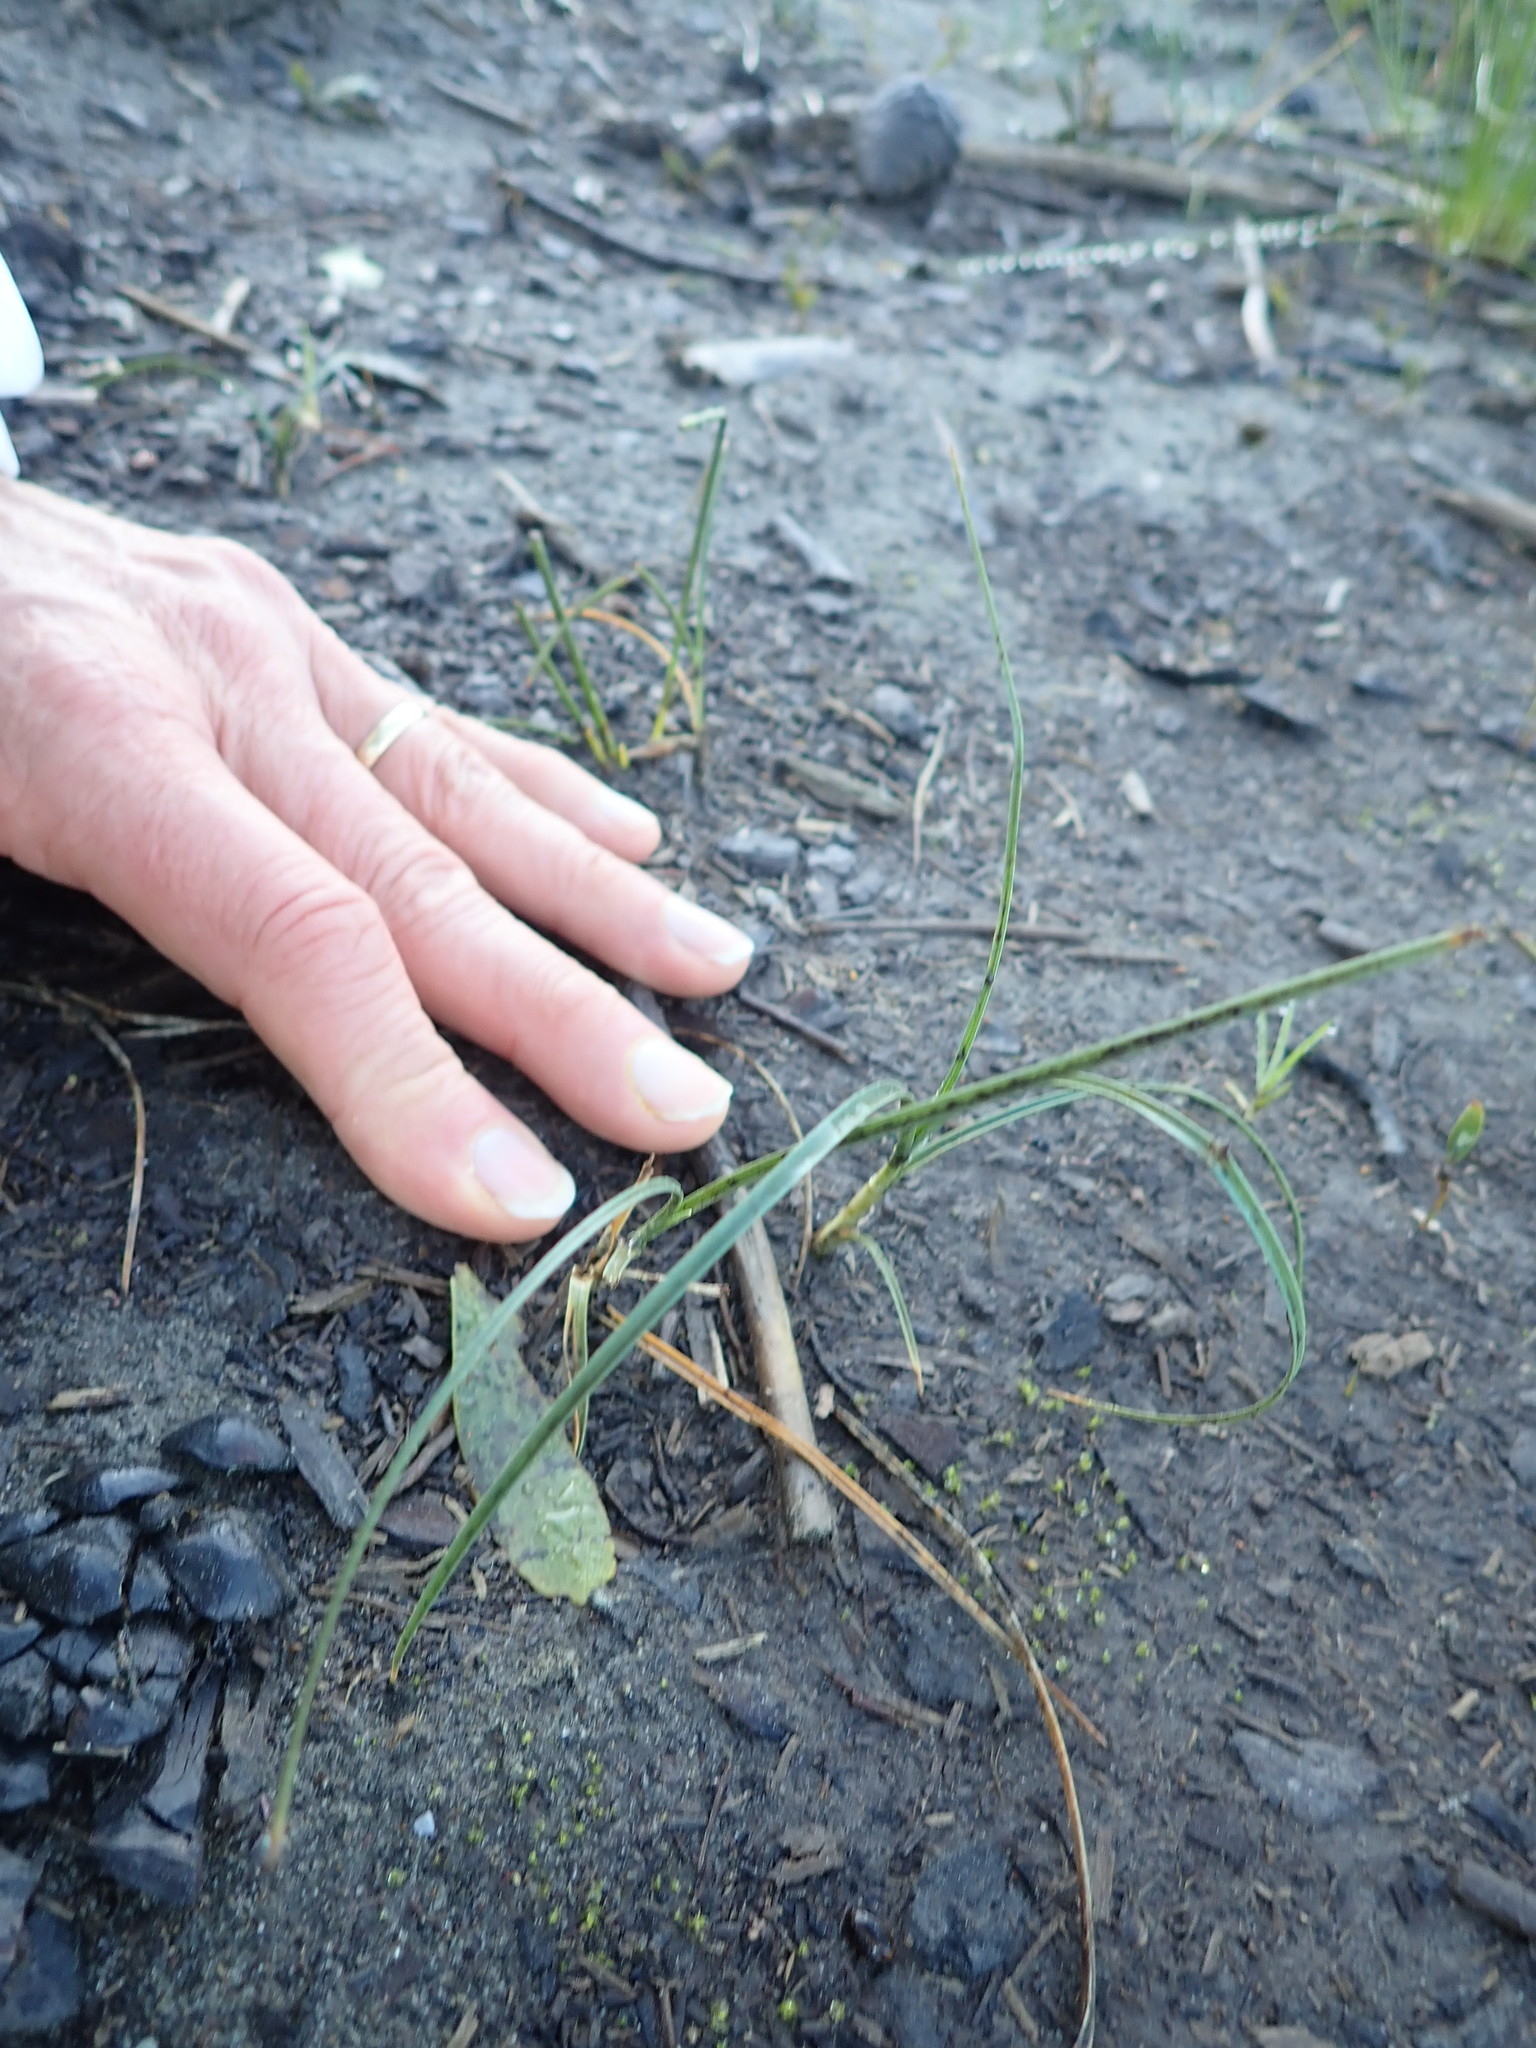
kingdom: Plantae
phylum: Tracheophyta
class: Liliopsida
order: Poales
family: Cyperaceae
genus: Carex
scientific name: Carex pumila
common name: Dwarf sedge
